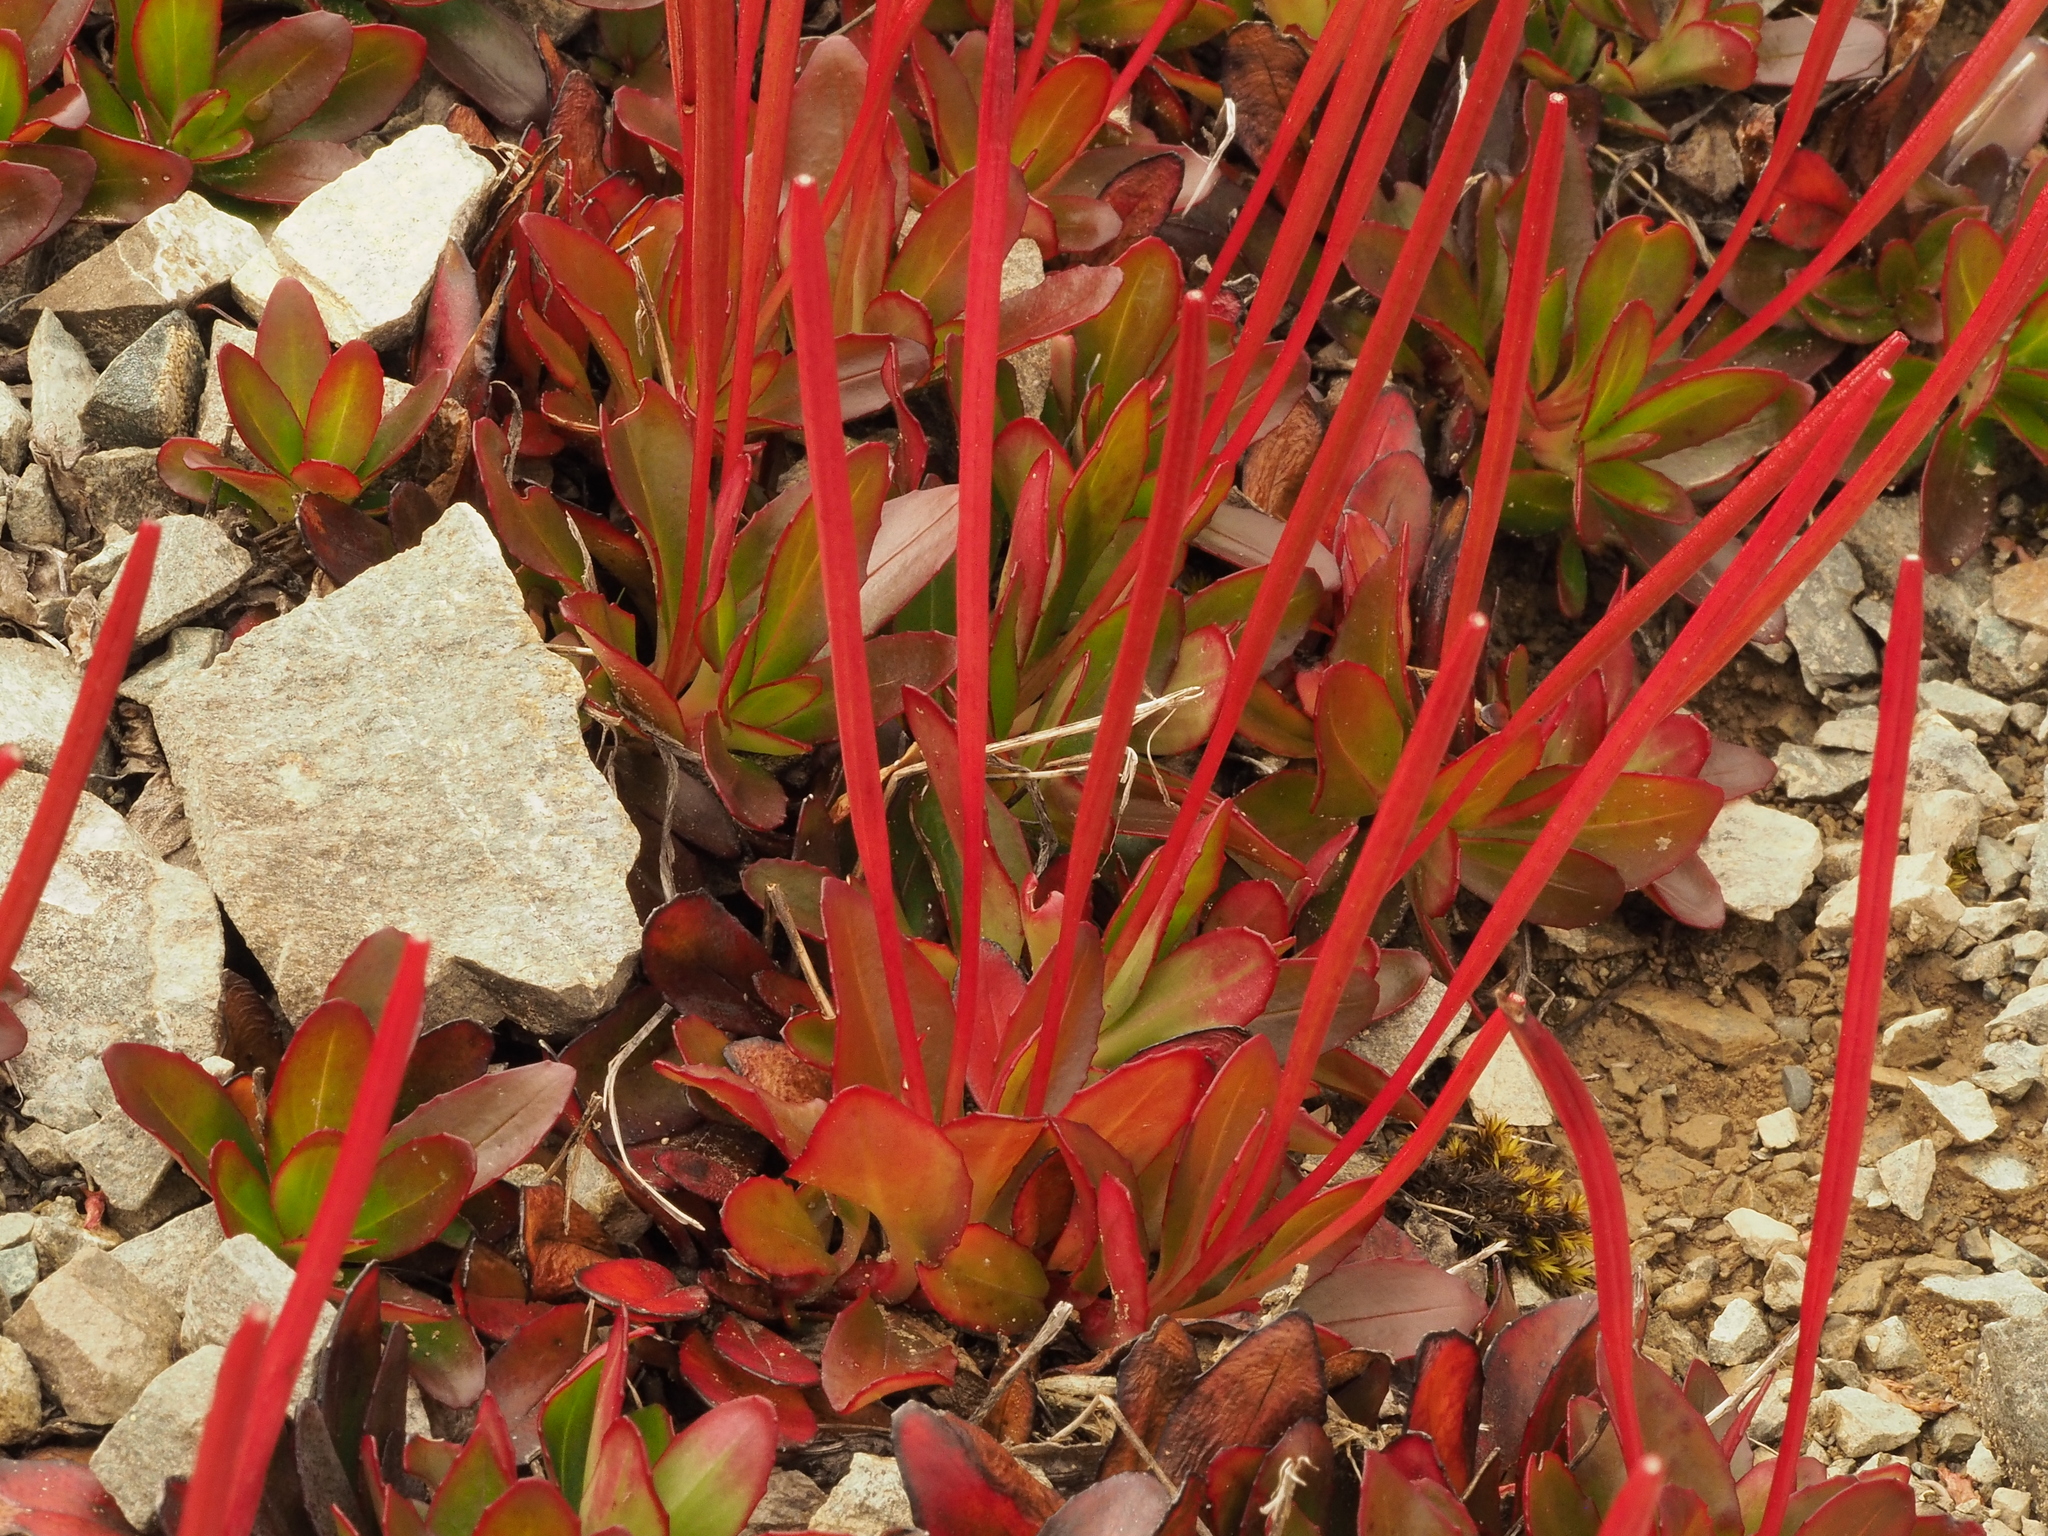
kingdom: Plantae
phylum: Tracheophyta
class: Magnoliopsida
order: Myrtales
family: Onagraceae
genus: Epilobium
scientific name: Epilobium crassum
